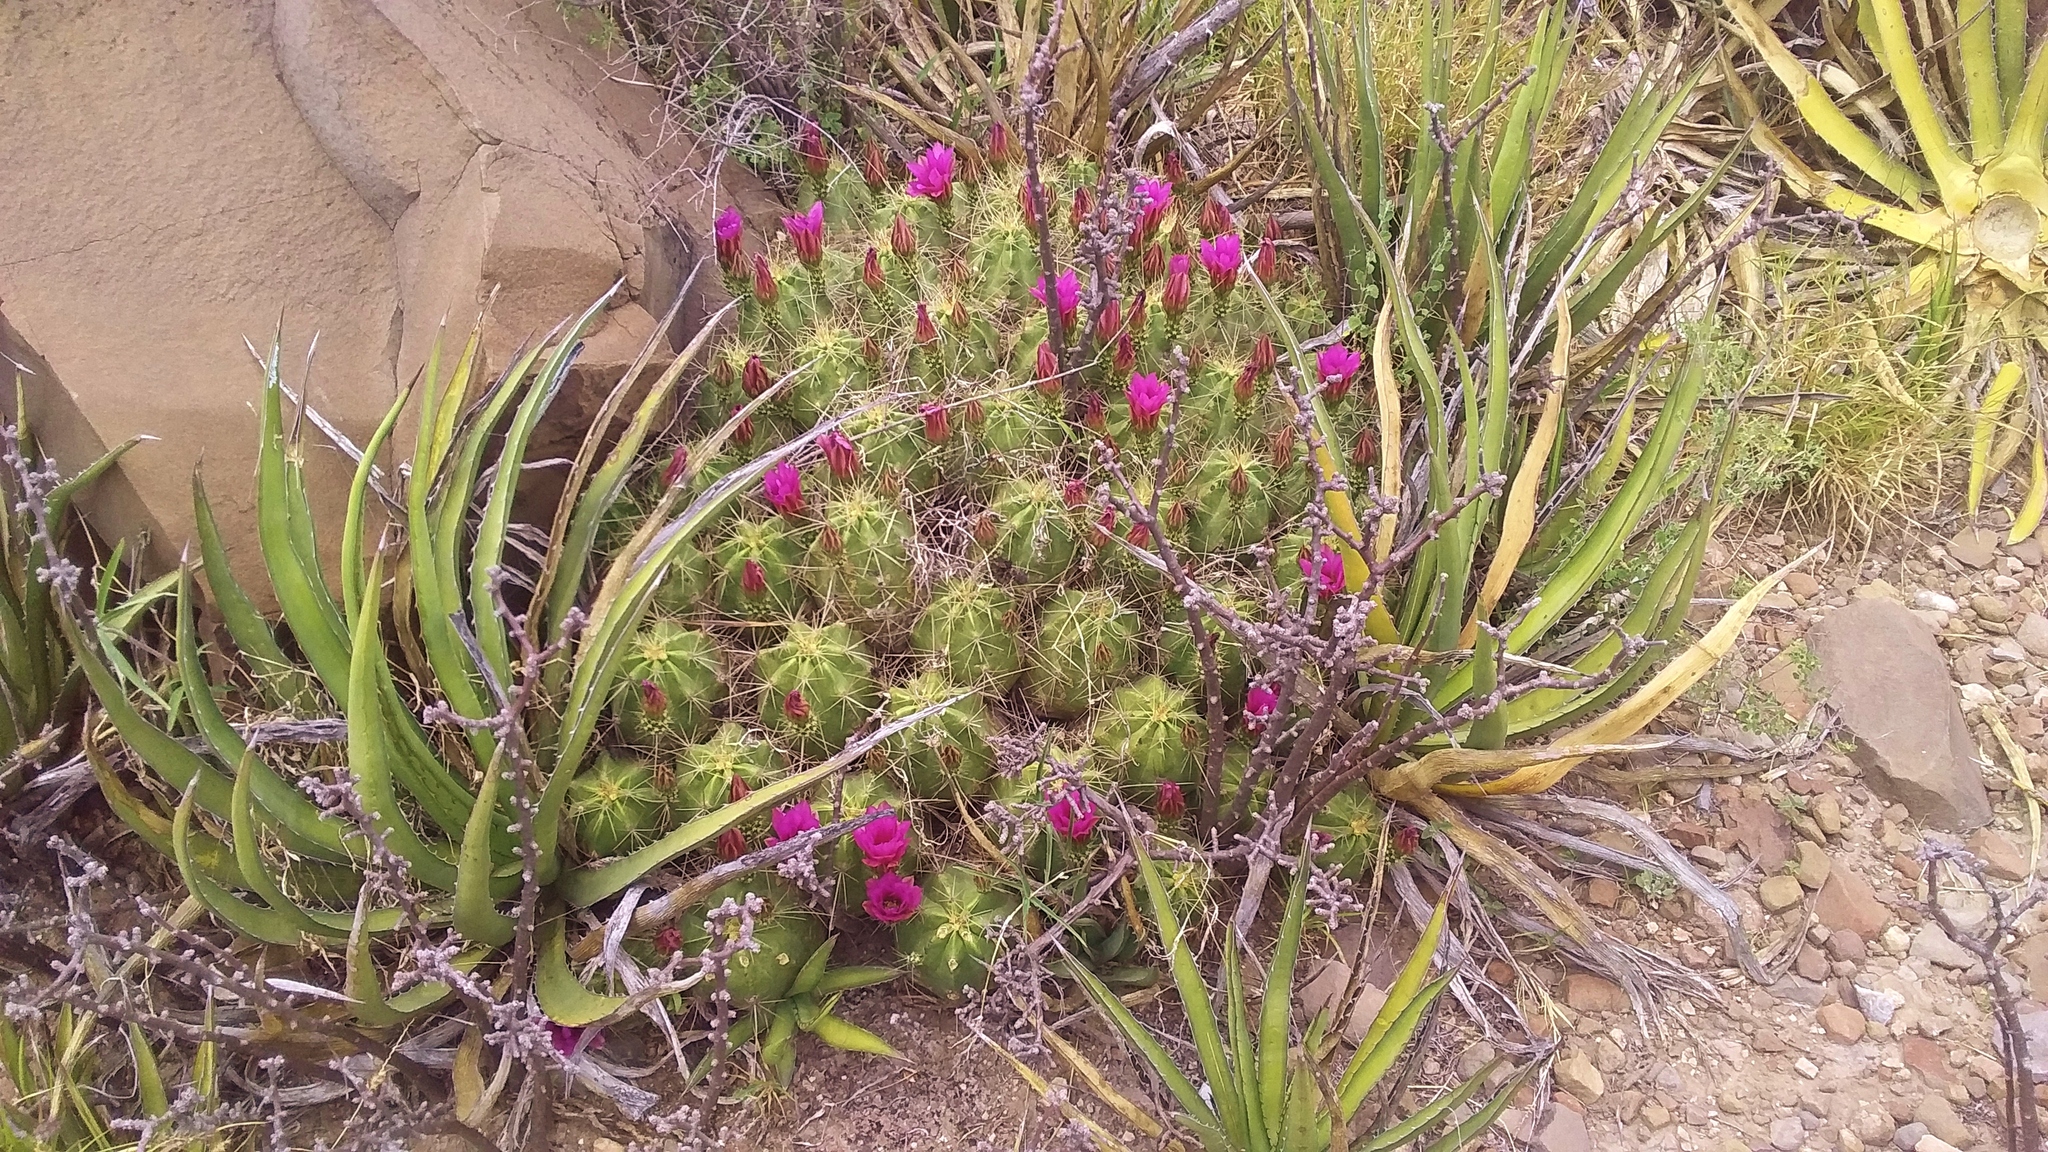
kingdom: Plantae
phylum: Tracheophyta
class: Magnoliopsida
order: Caryophyllales
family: Cactaceae
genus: Echinocereus
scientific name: Echinocereus enneacanthus
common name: Pitaya
